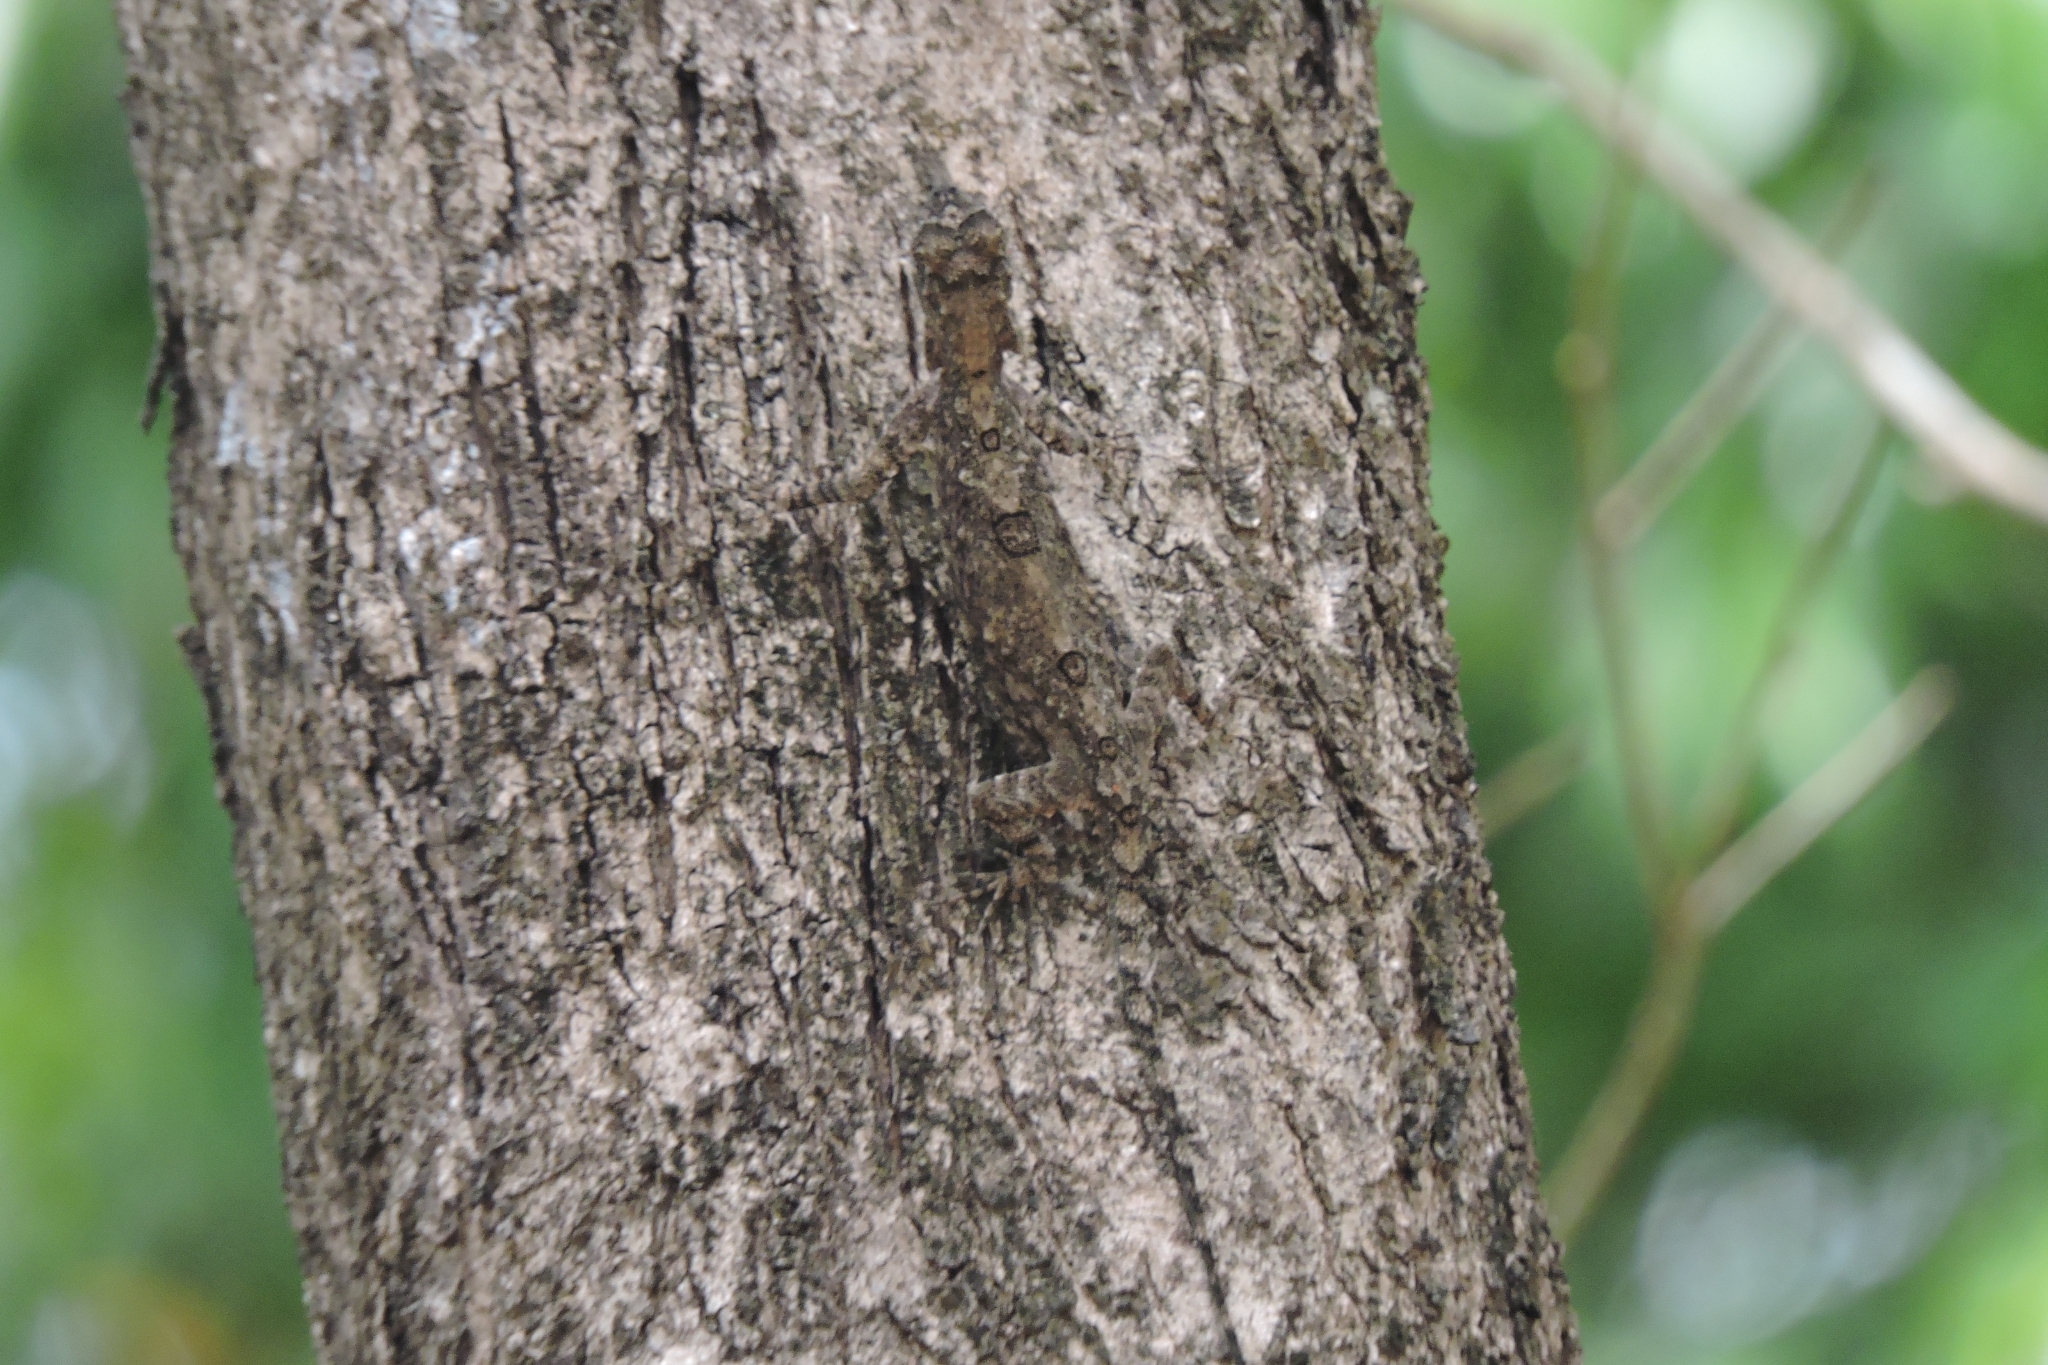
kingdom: Animalia
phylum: Chordata
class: Squamata
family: Agamidae
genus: Draco
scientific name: Draco dussumieri
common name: Southern flying lizard
